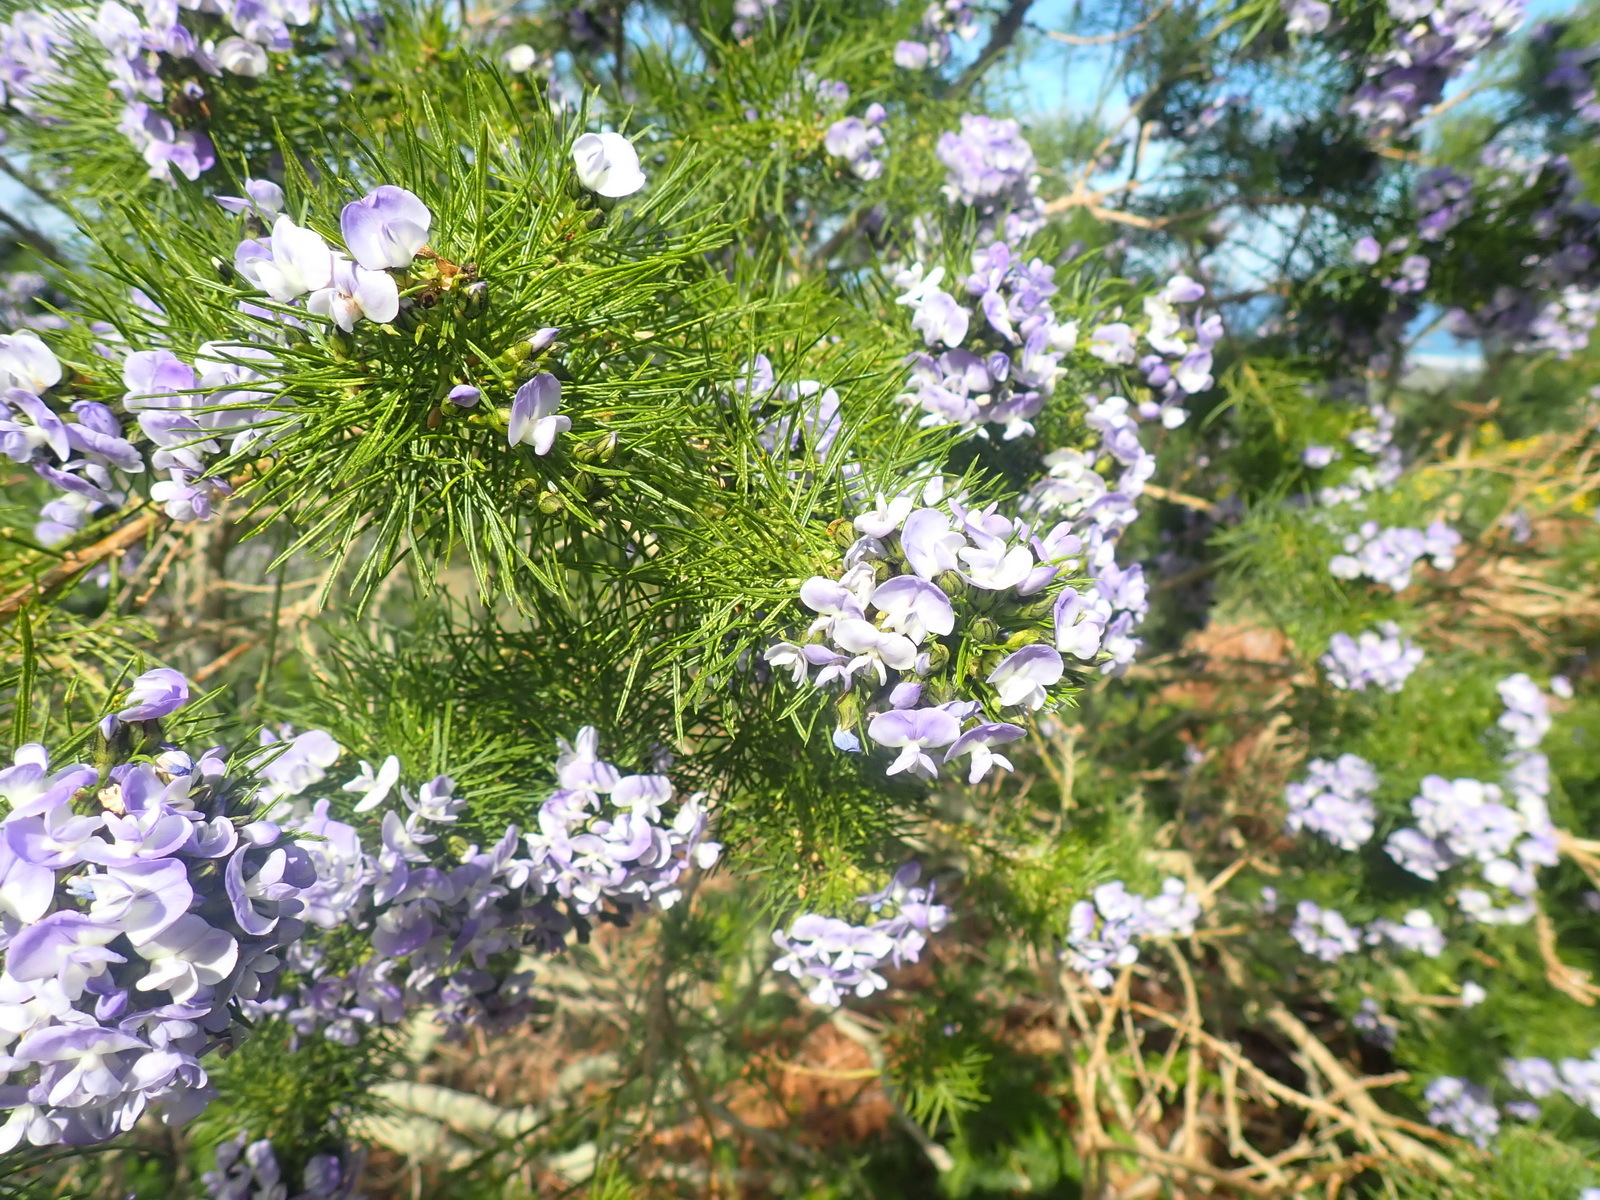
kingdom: Plantae
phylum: Tracheophyta
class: Magnoliopsida
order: Fabales
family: Fabaceae
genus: Psoralea
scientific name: Psoralea arborea
